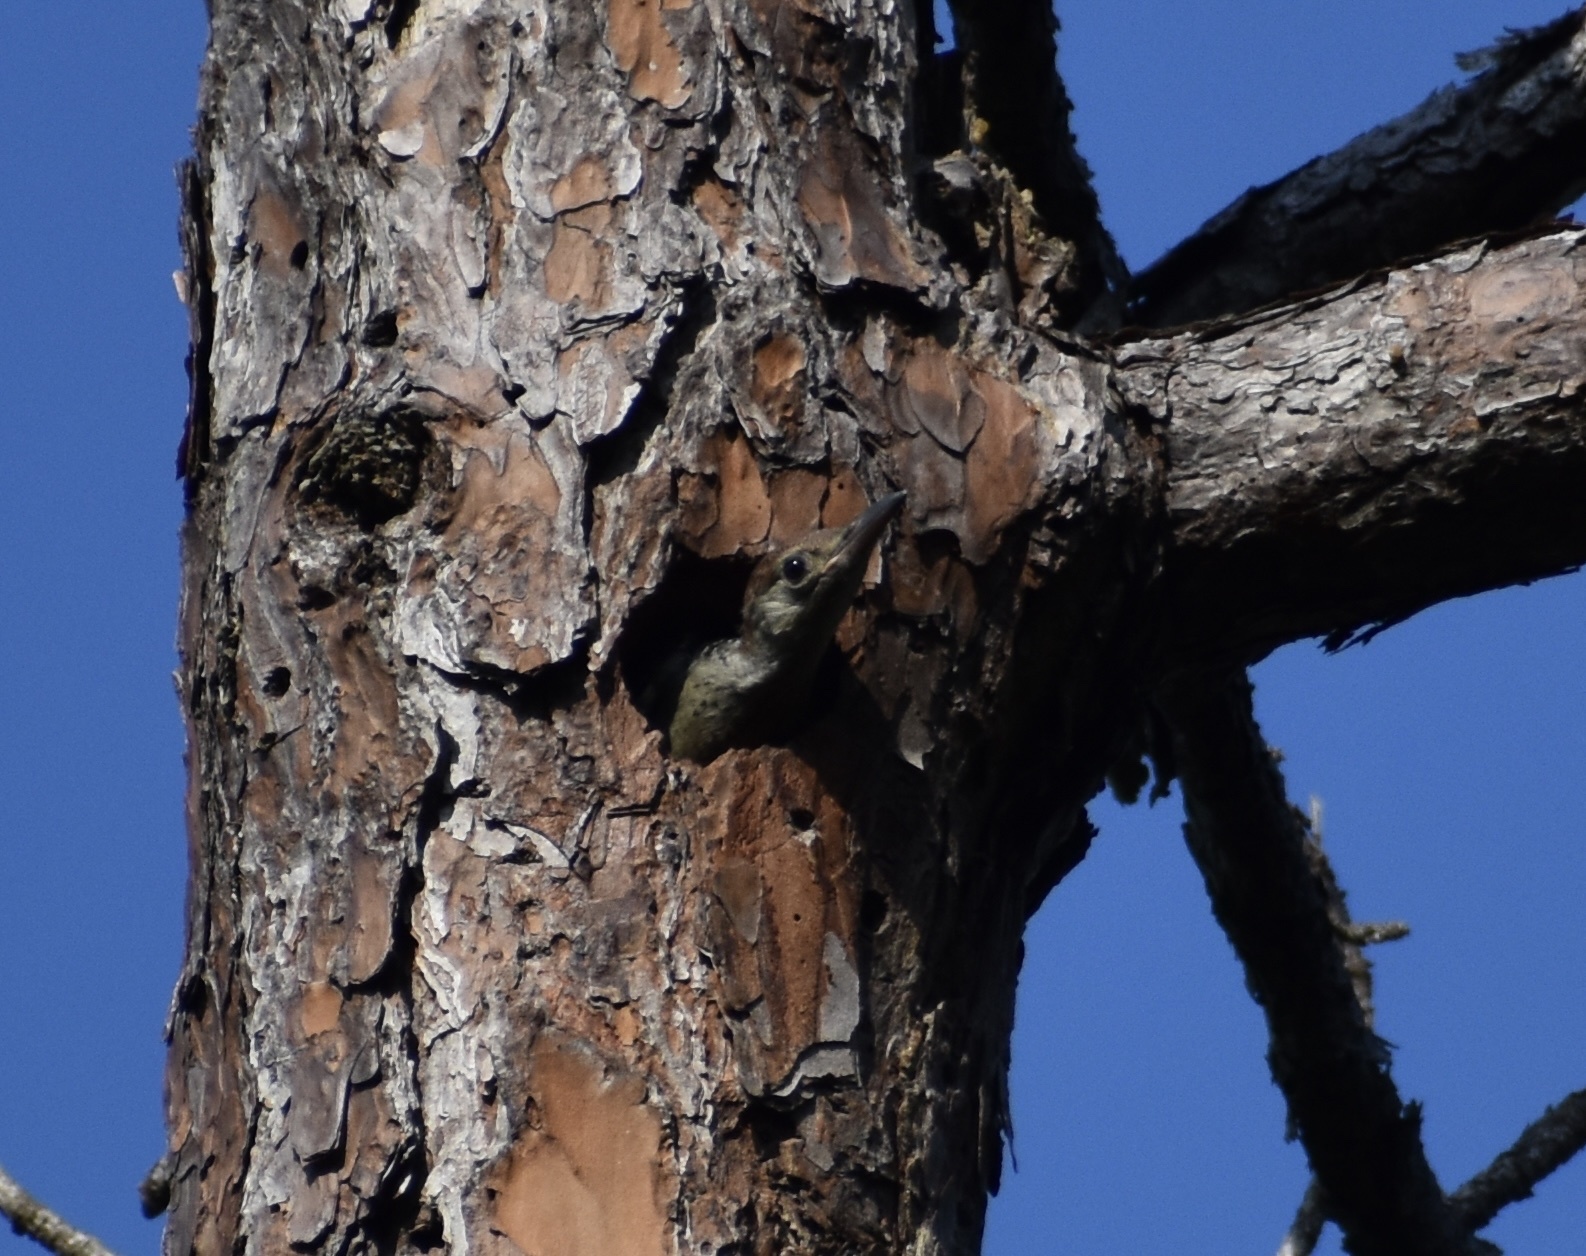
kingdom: Animalia
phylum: Chordata
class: Aves
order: Piciformes
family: Picidae
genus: Melanerpes
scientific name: Melanerpes carolinus
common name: Red-bellied woodpecker
